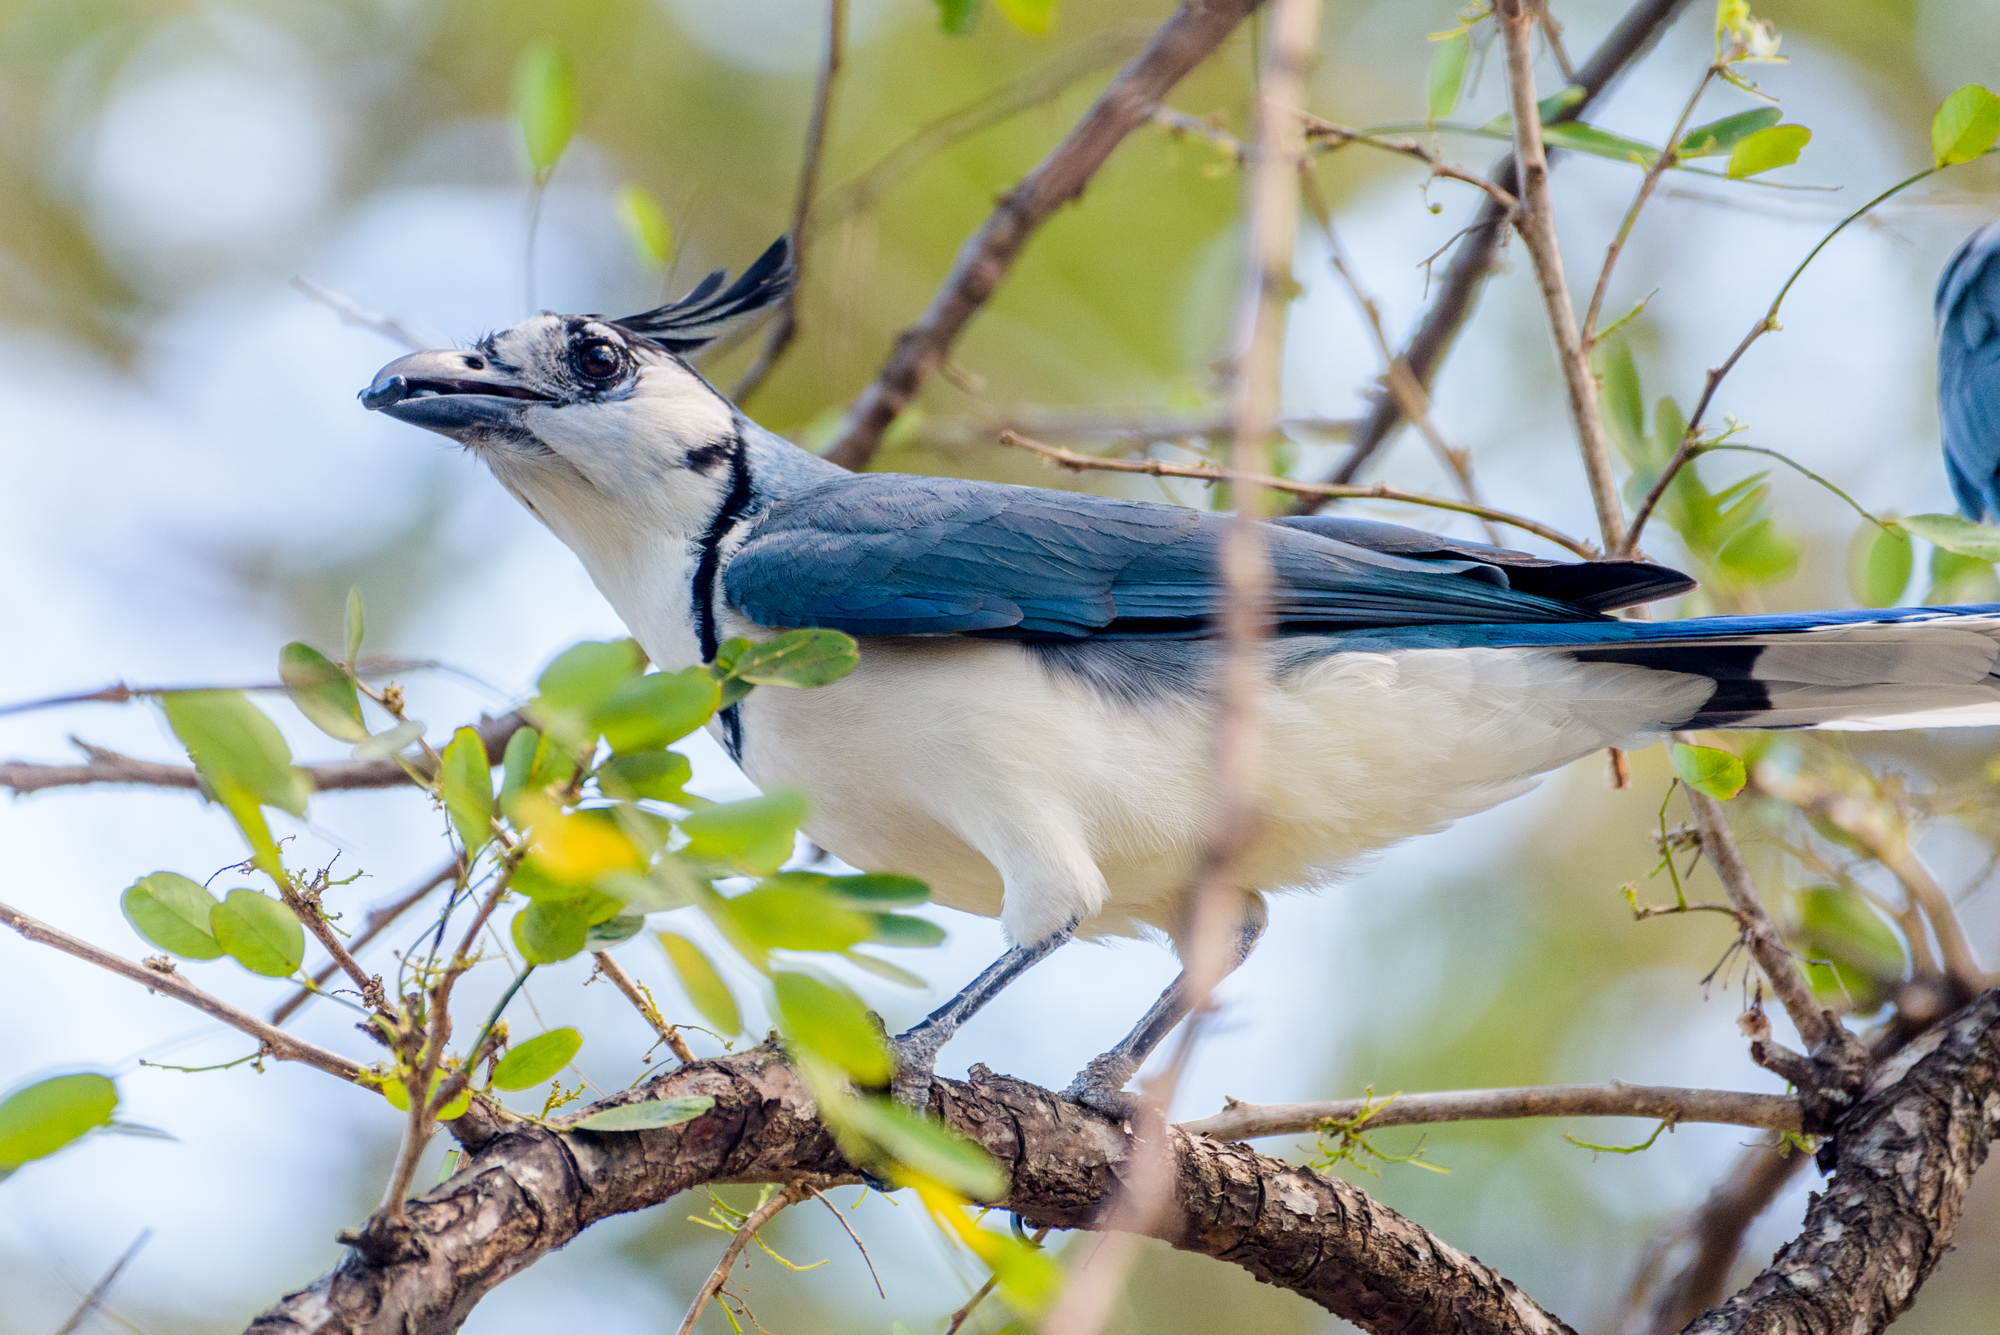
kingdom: Animalia
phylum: Chordata
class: Aves
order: Passeriformes
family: Corvidae
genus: Calocitta
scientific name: Calocitta formosa
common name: White-throated magpie-jay
